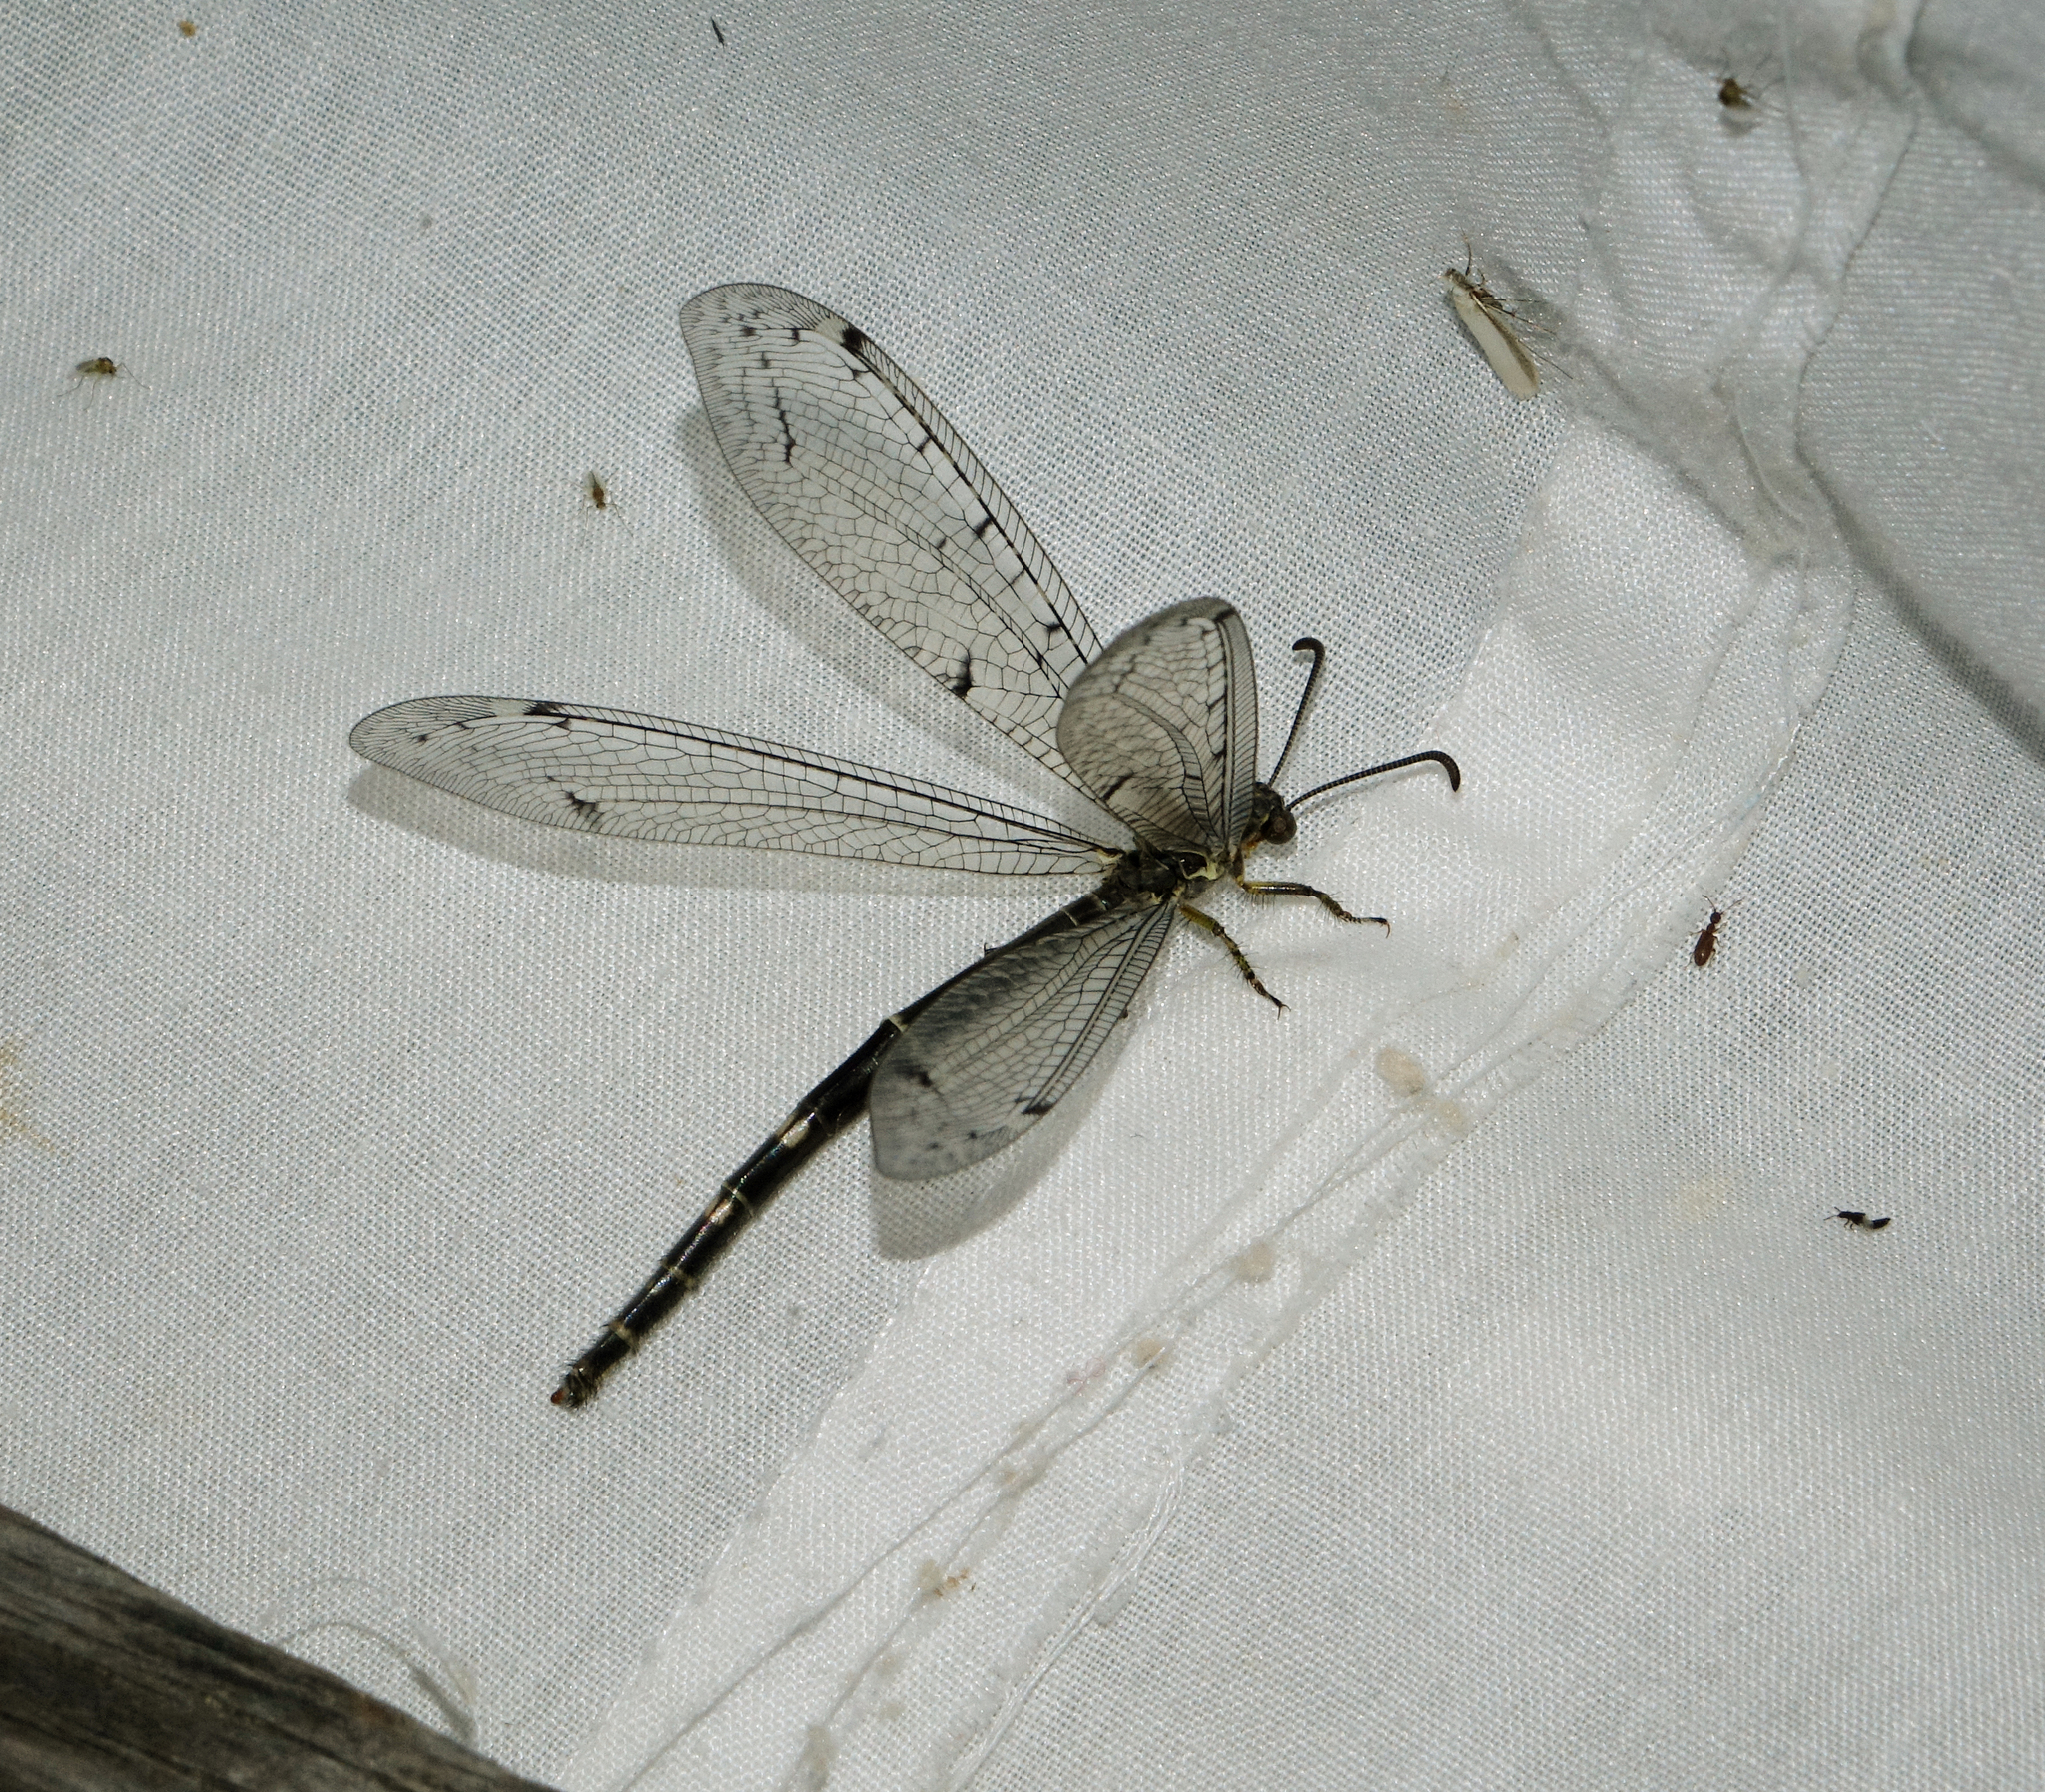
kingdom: Animalia
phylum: Arthropoda
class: Insecta
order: Neuroptera
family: Myrmeleontidae
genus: Distoleon
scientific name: Distoleon tetragrammicus
